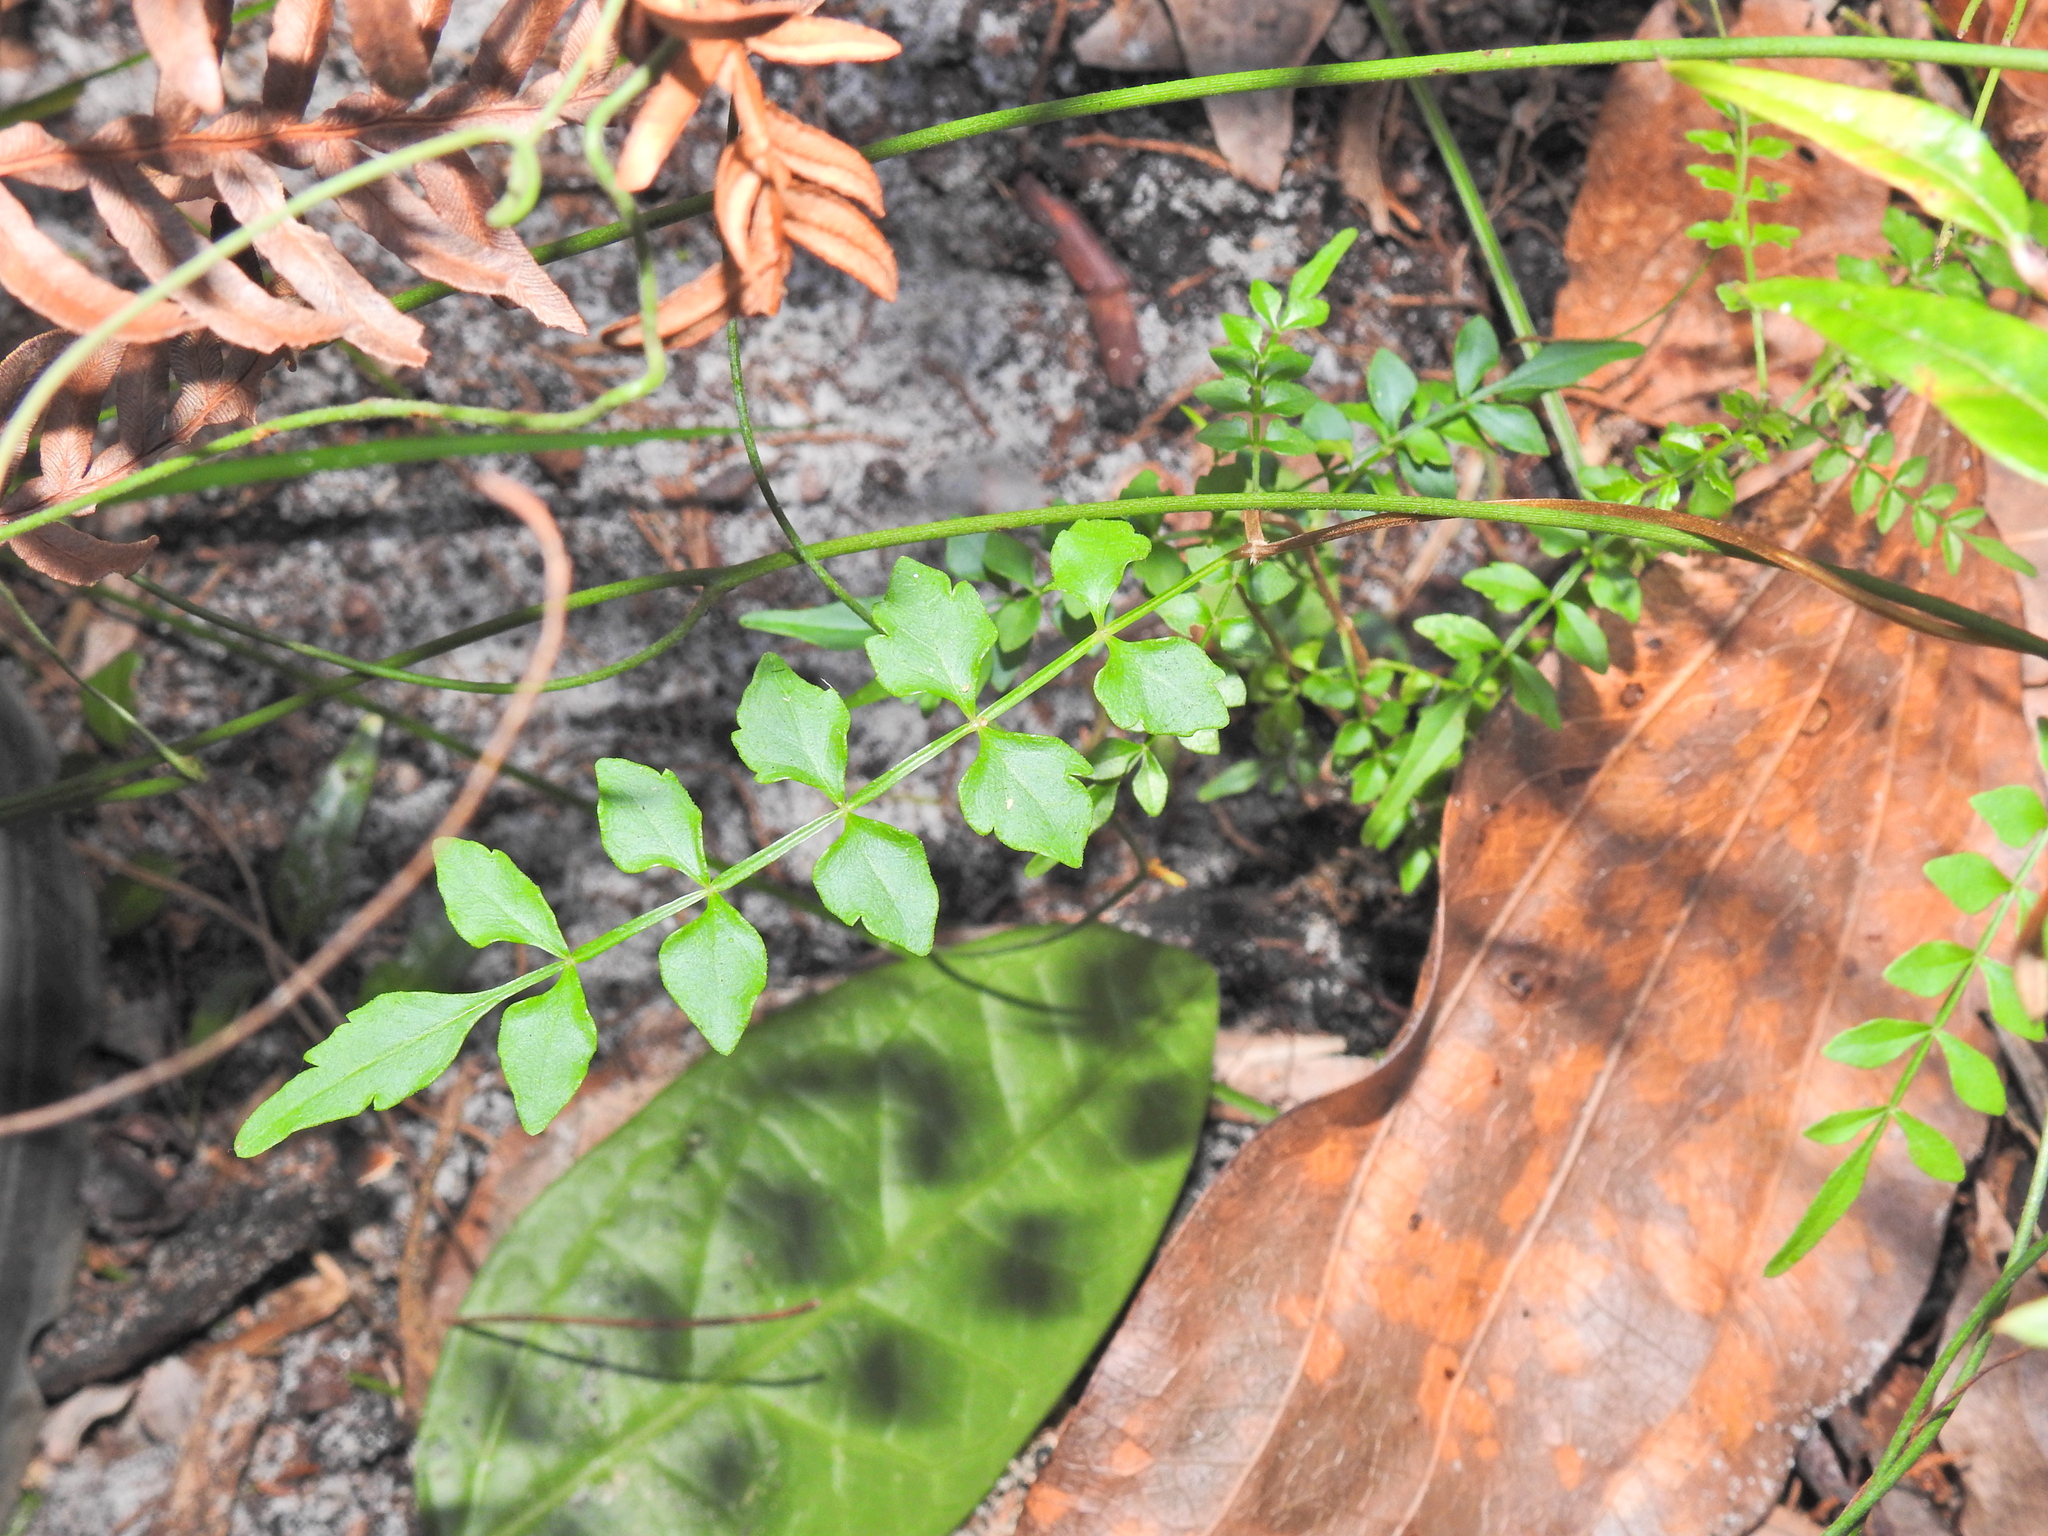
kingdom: Plantae
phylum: Tracheophyta
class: Magnoliopsida
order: Lamiales
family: Bignoniaceae
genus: Pandorea
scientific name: Pandorea pandorana
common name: Wonga-wonga-vine
